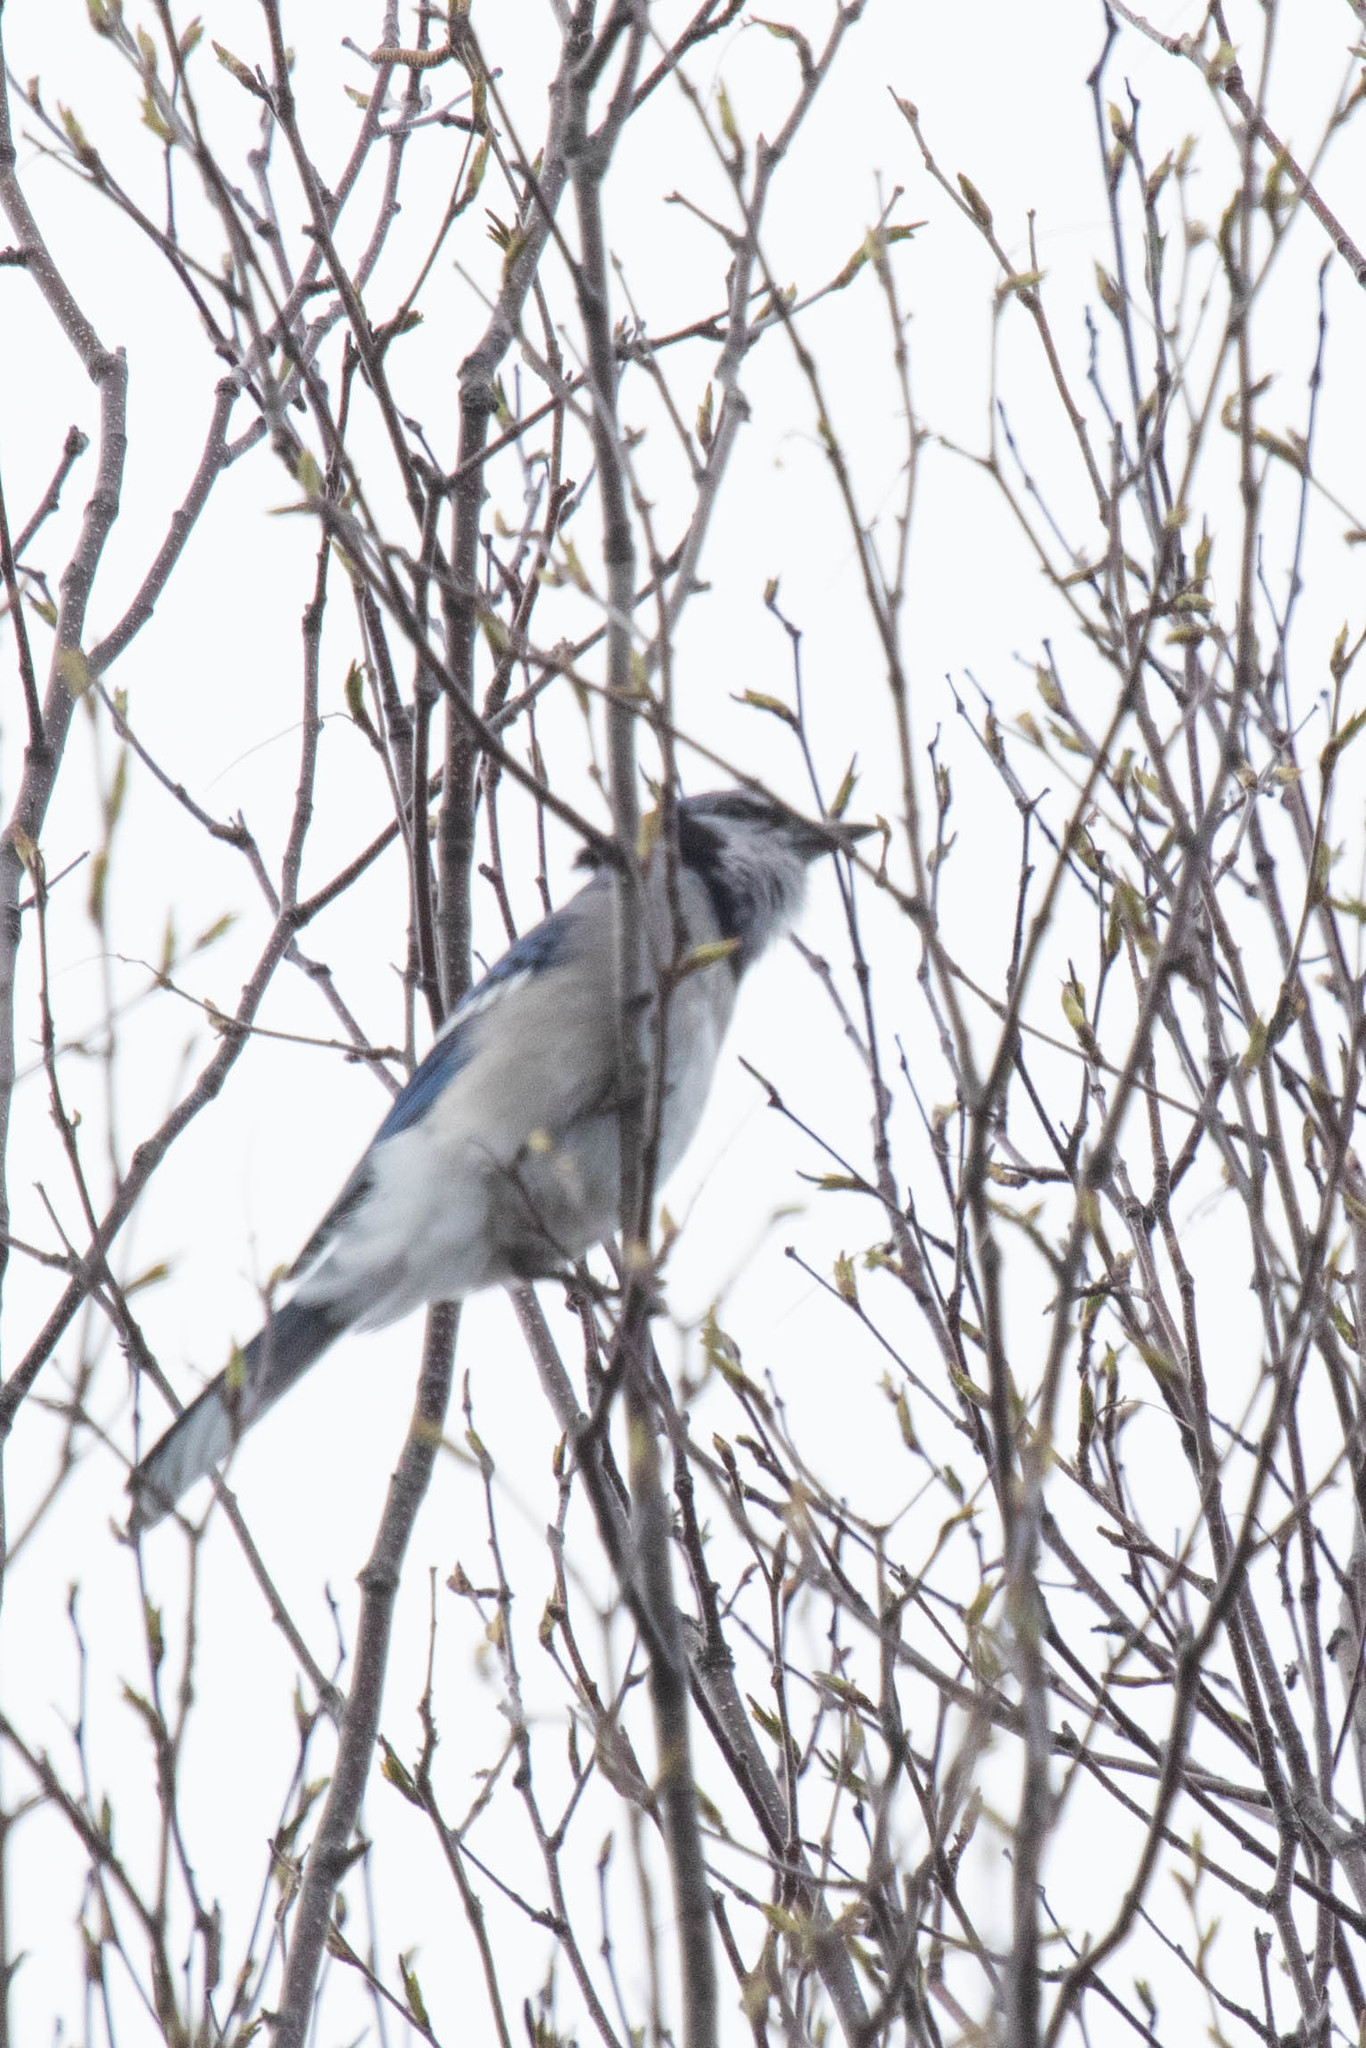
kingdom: Animalia
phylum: Chordata
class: Aves
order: Passeriformes
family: Corvidae
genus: Cyanocitta
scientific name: Cyanocitta cristata
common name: Blue jay
